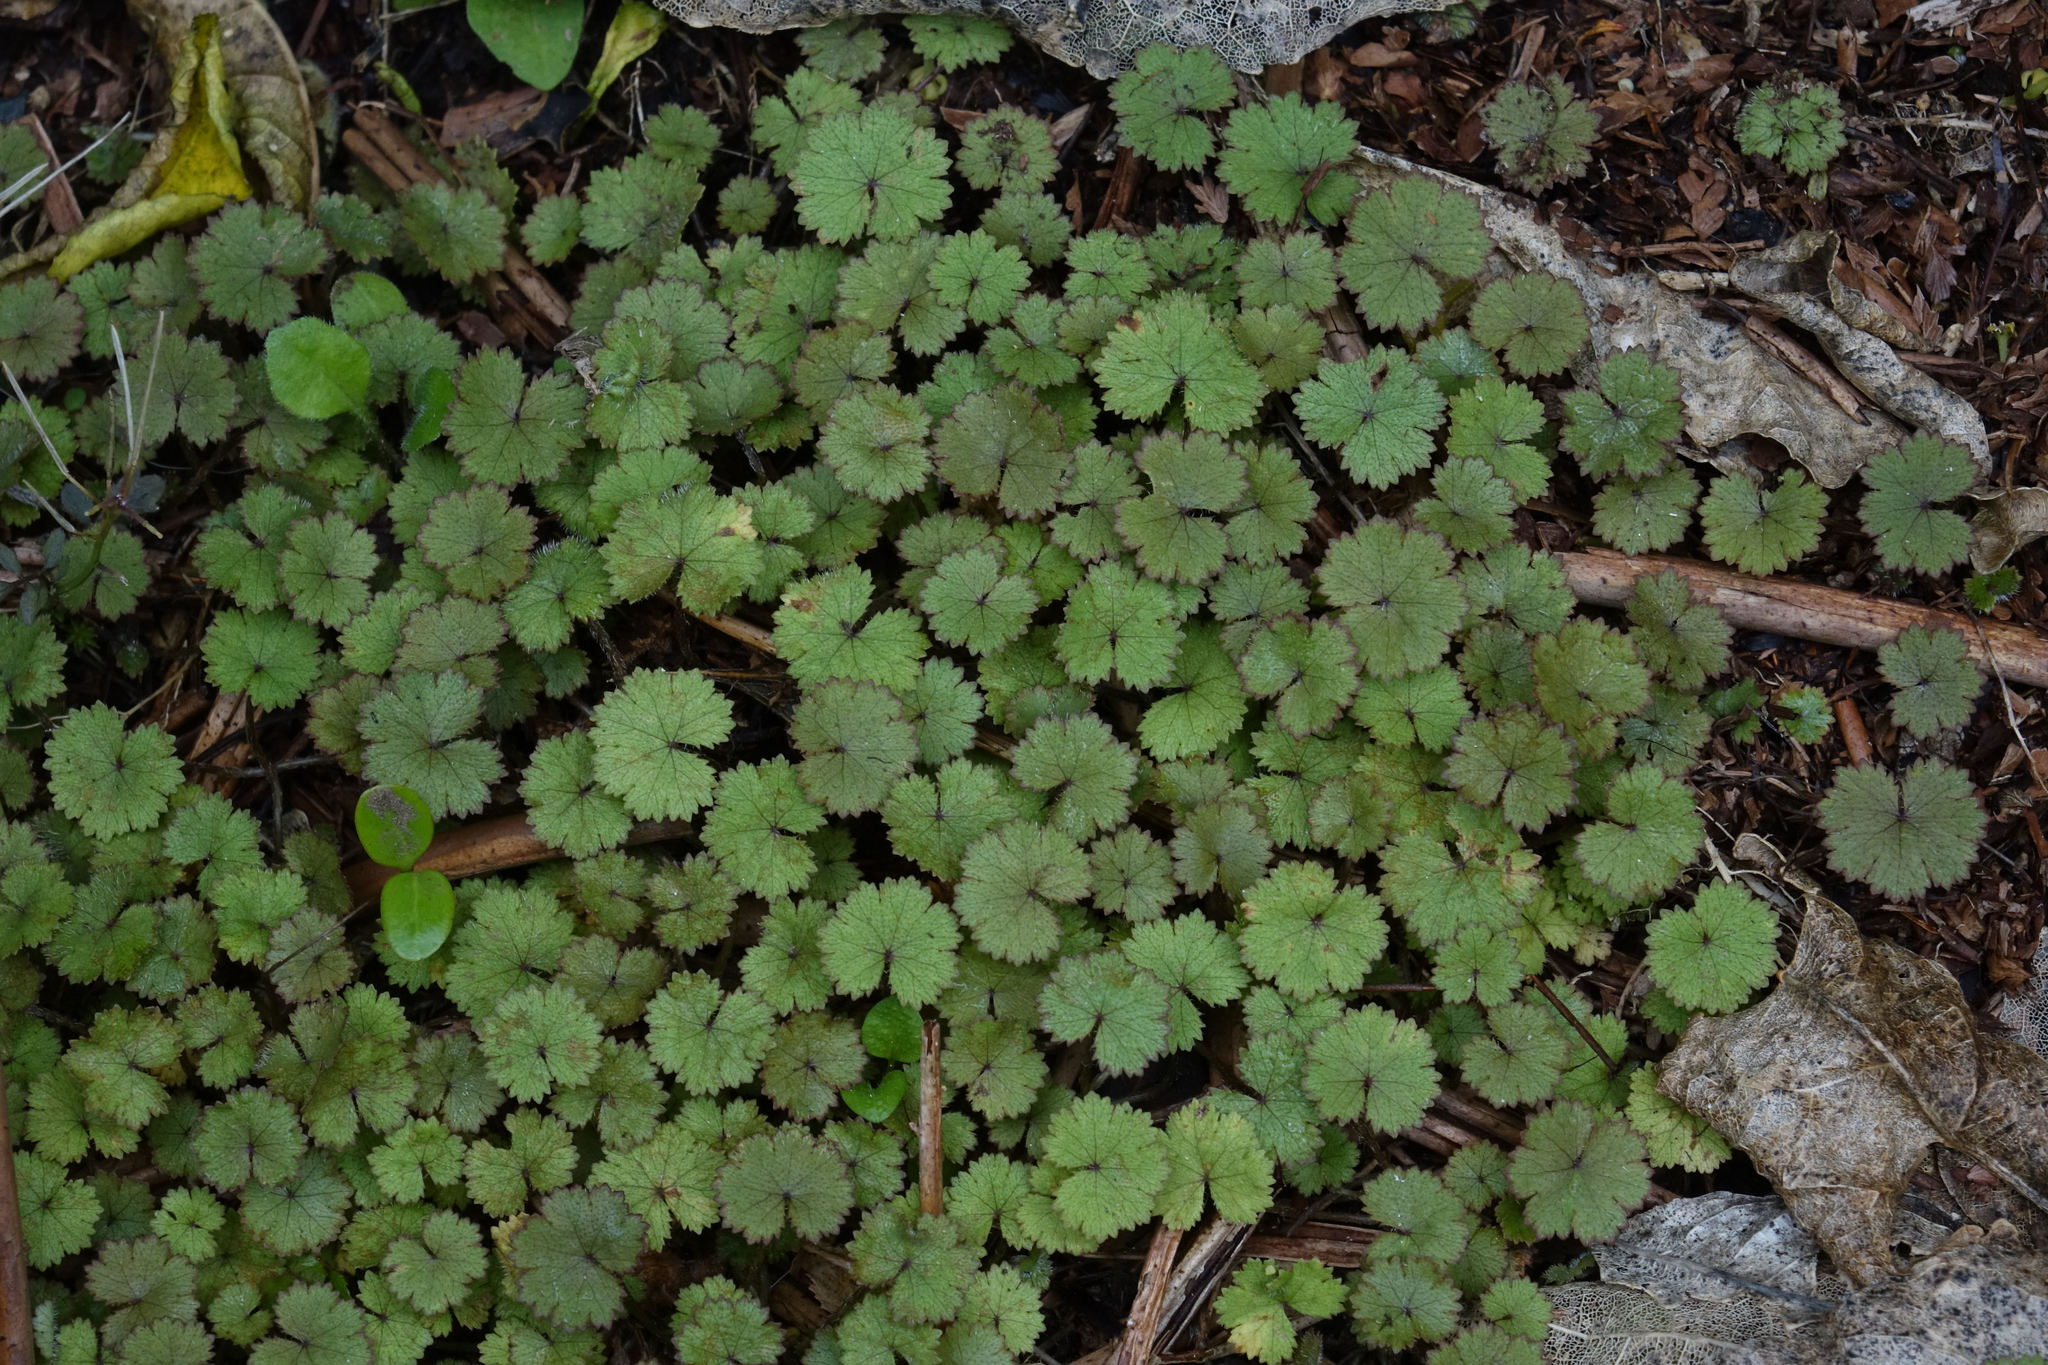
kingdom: Plantae
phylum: Tracheophyta
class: Magnoliopsida
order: Apiales
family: Araliaceae
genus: Hydrocotyle
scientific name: Hydrocotyle moschata
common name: Hairy pennywort
